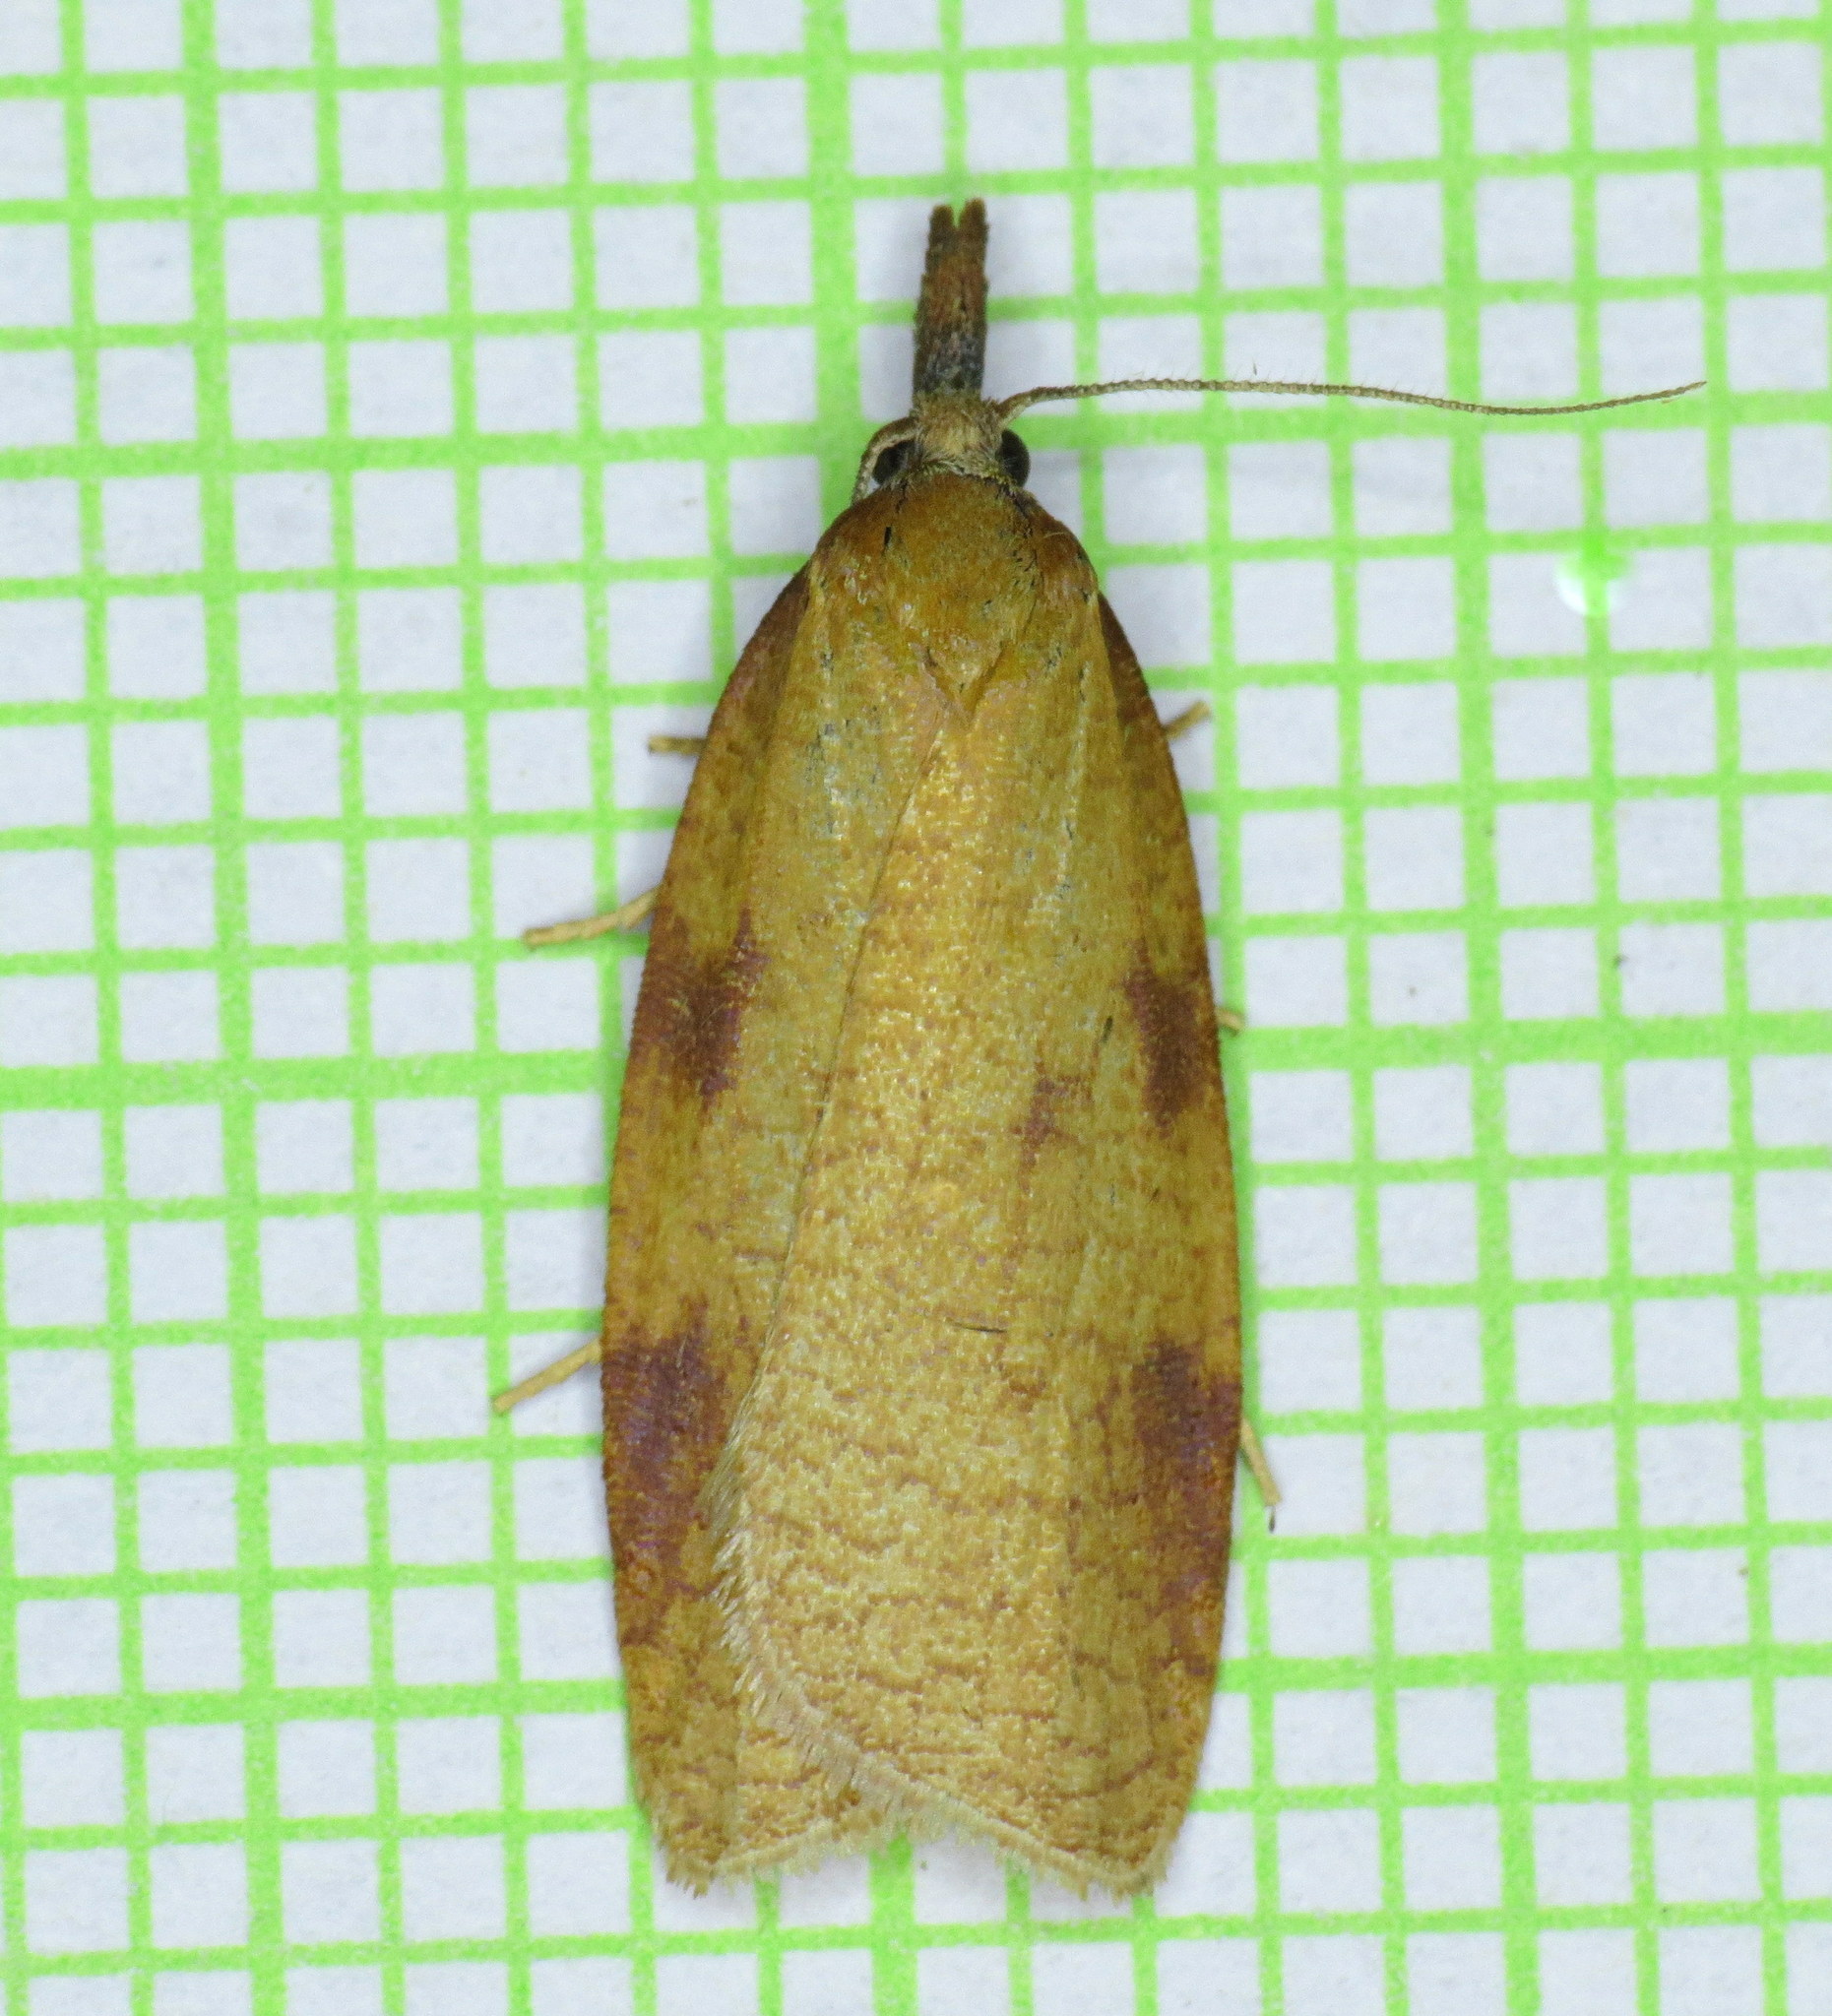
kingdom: Animalia
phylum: Arthropoda
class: Insecta
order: Lepidoptera
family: Tortricidae
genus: Sparganothis
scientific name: Sparganothis boweri
